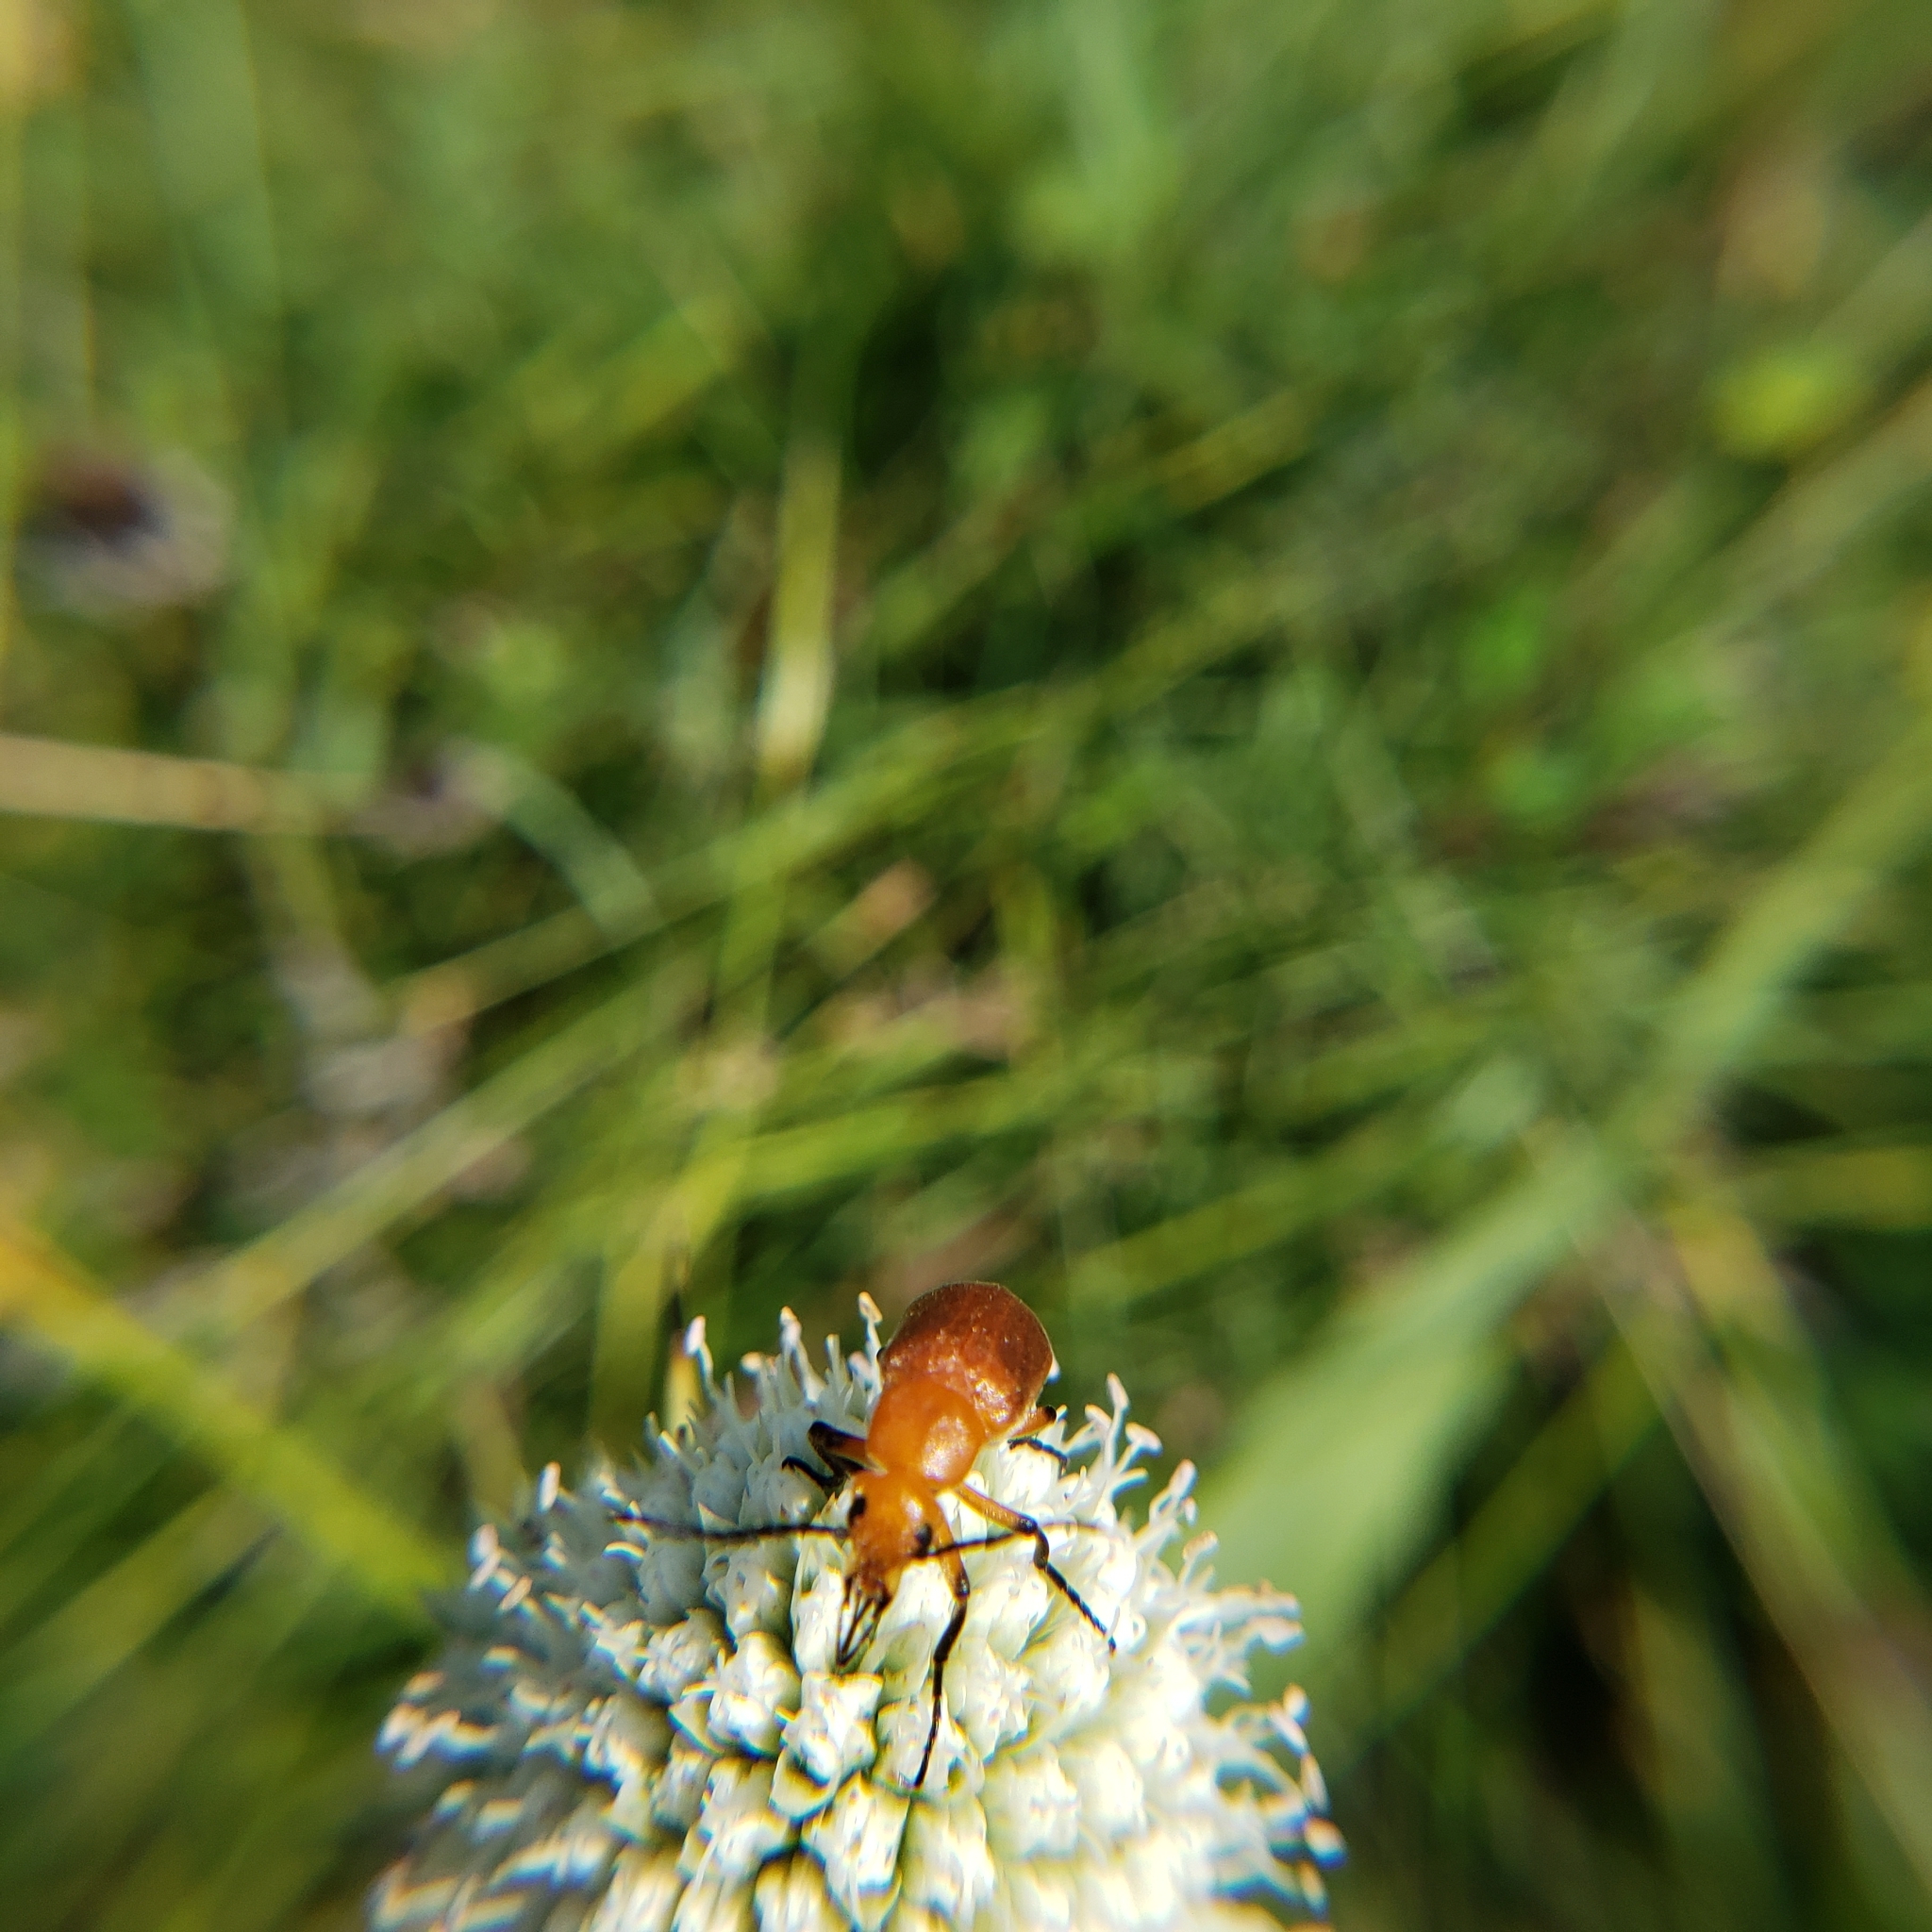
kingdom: Animalia
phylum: Arthropoda
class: Insecta
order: Coleoptera
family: Meloidae
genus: Zonitis
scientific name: Zonitis vittigera
